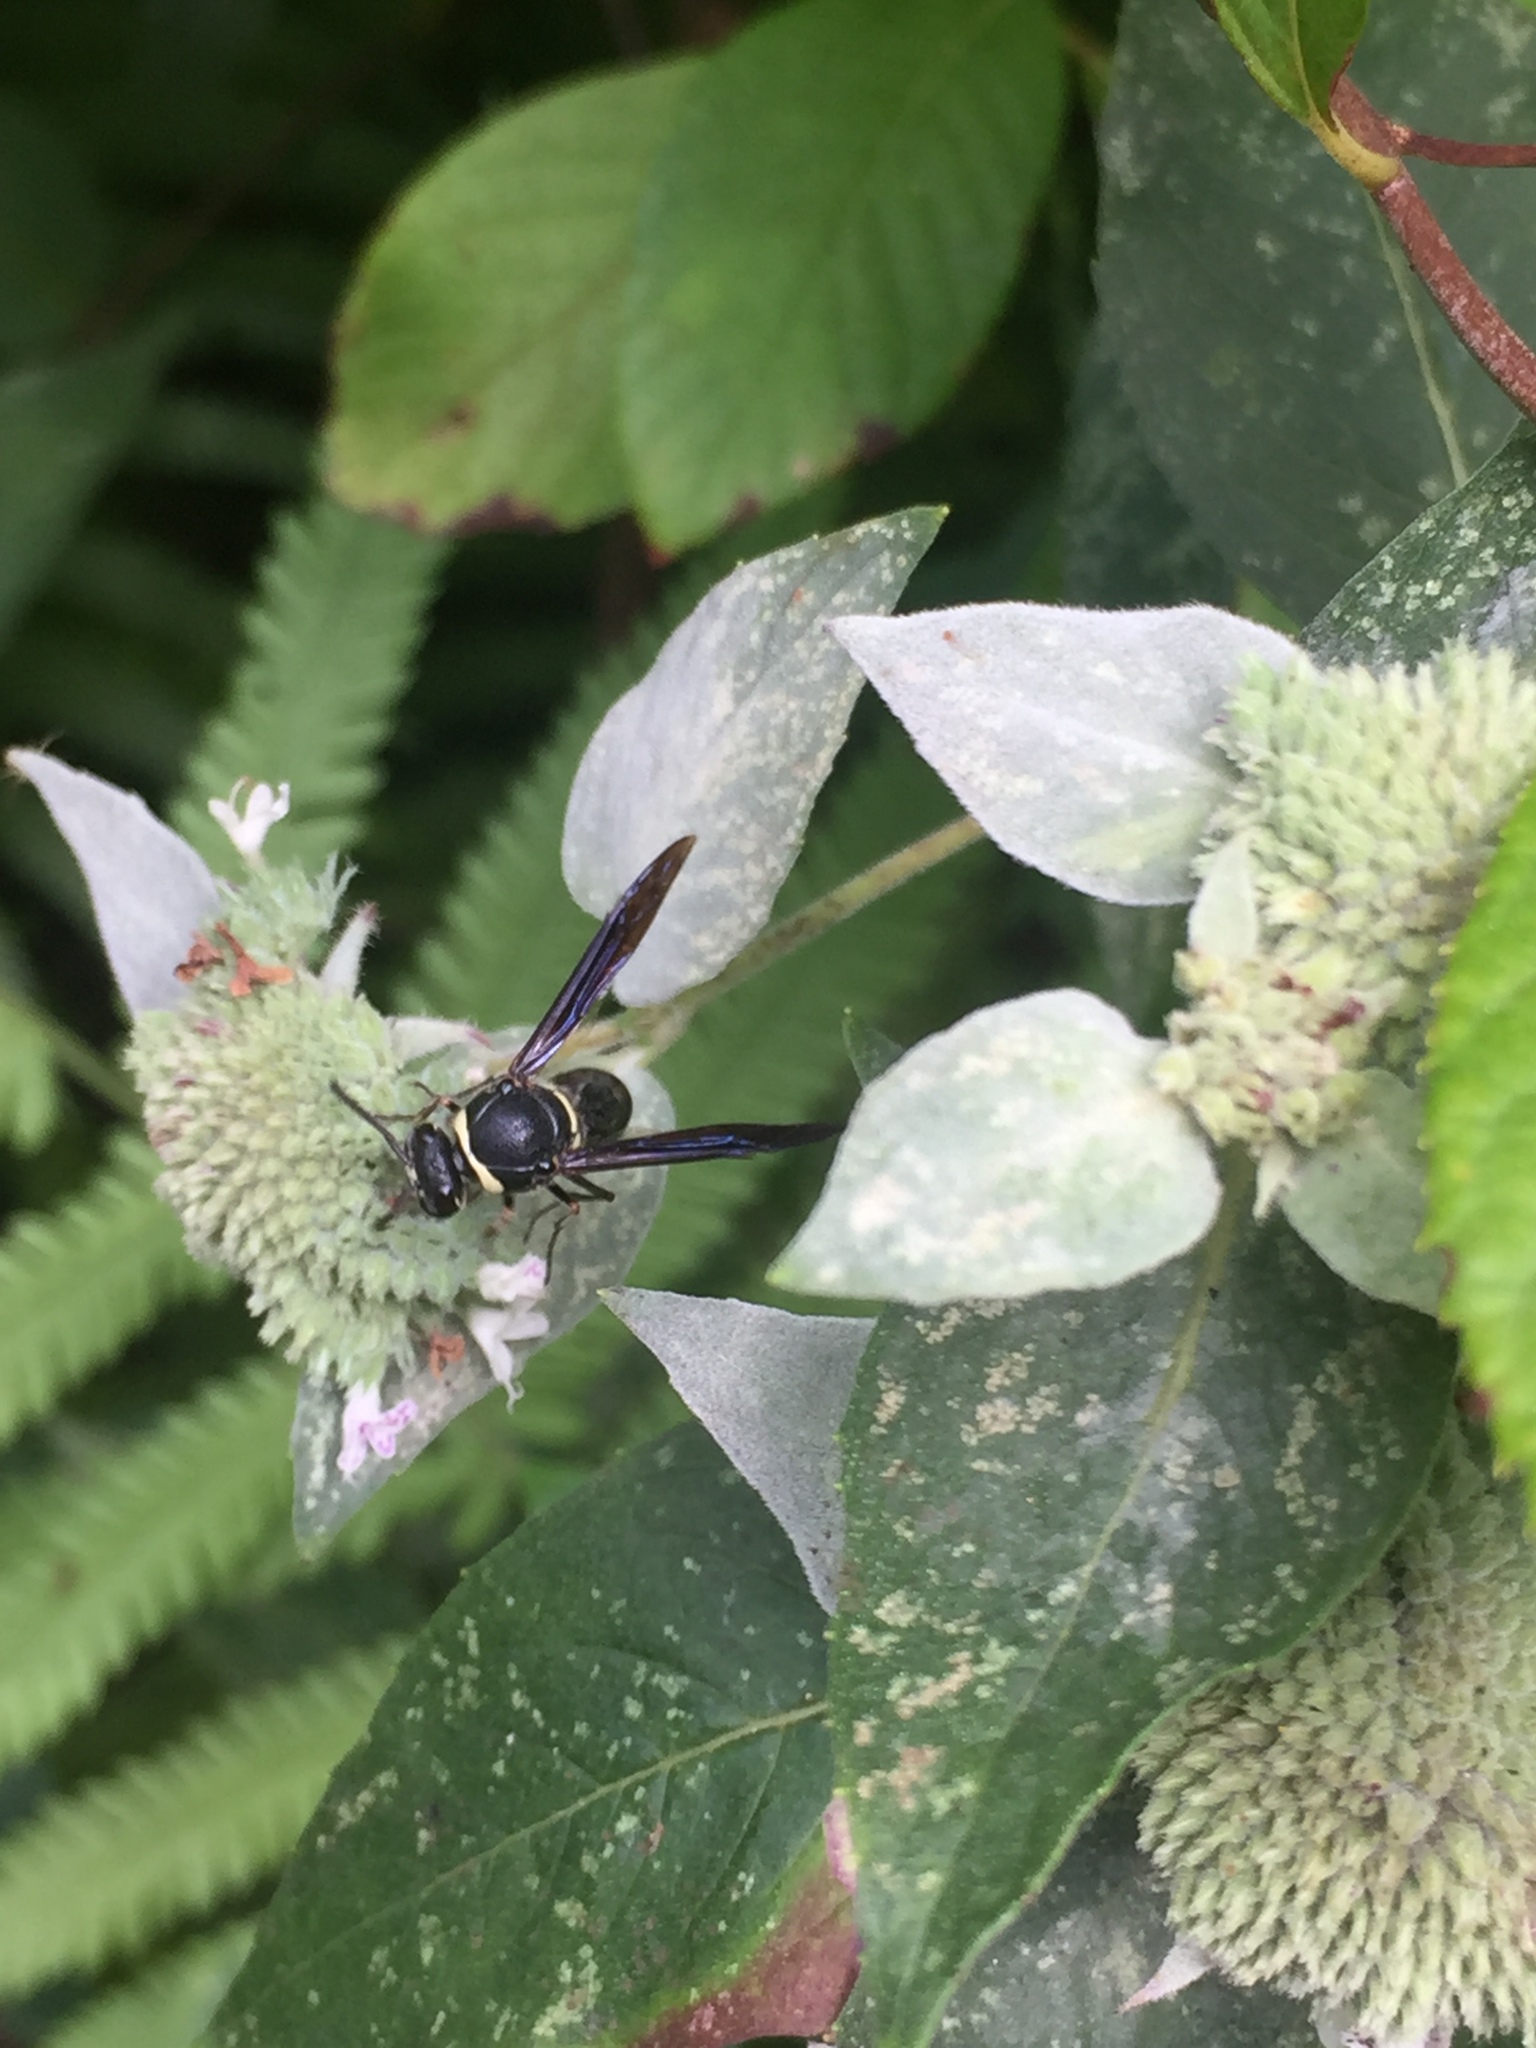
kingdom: Animalia
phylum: Arthropoda
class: Insecta
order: Hymenoptera
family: Vespidae
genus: Eumenes
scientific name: Eumenes fraternus
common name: Fraternal potter wasp
